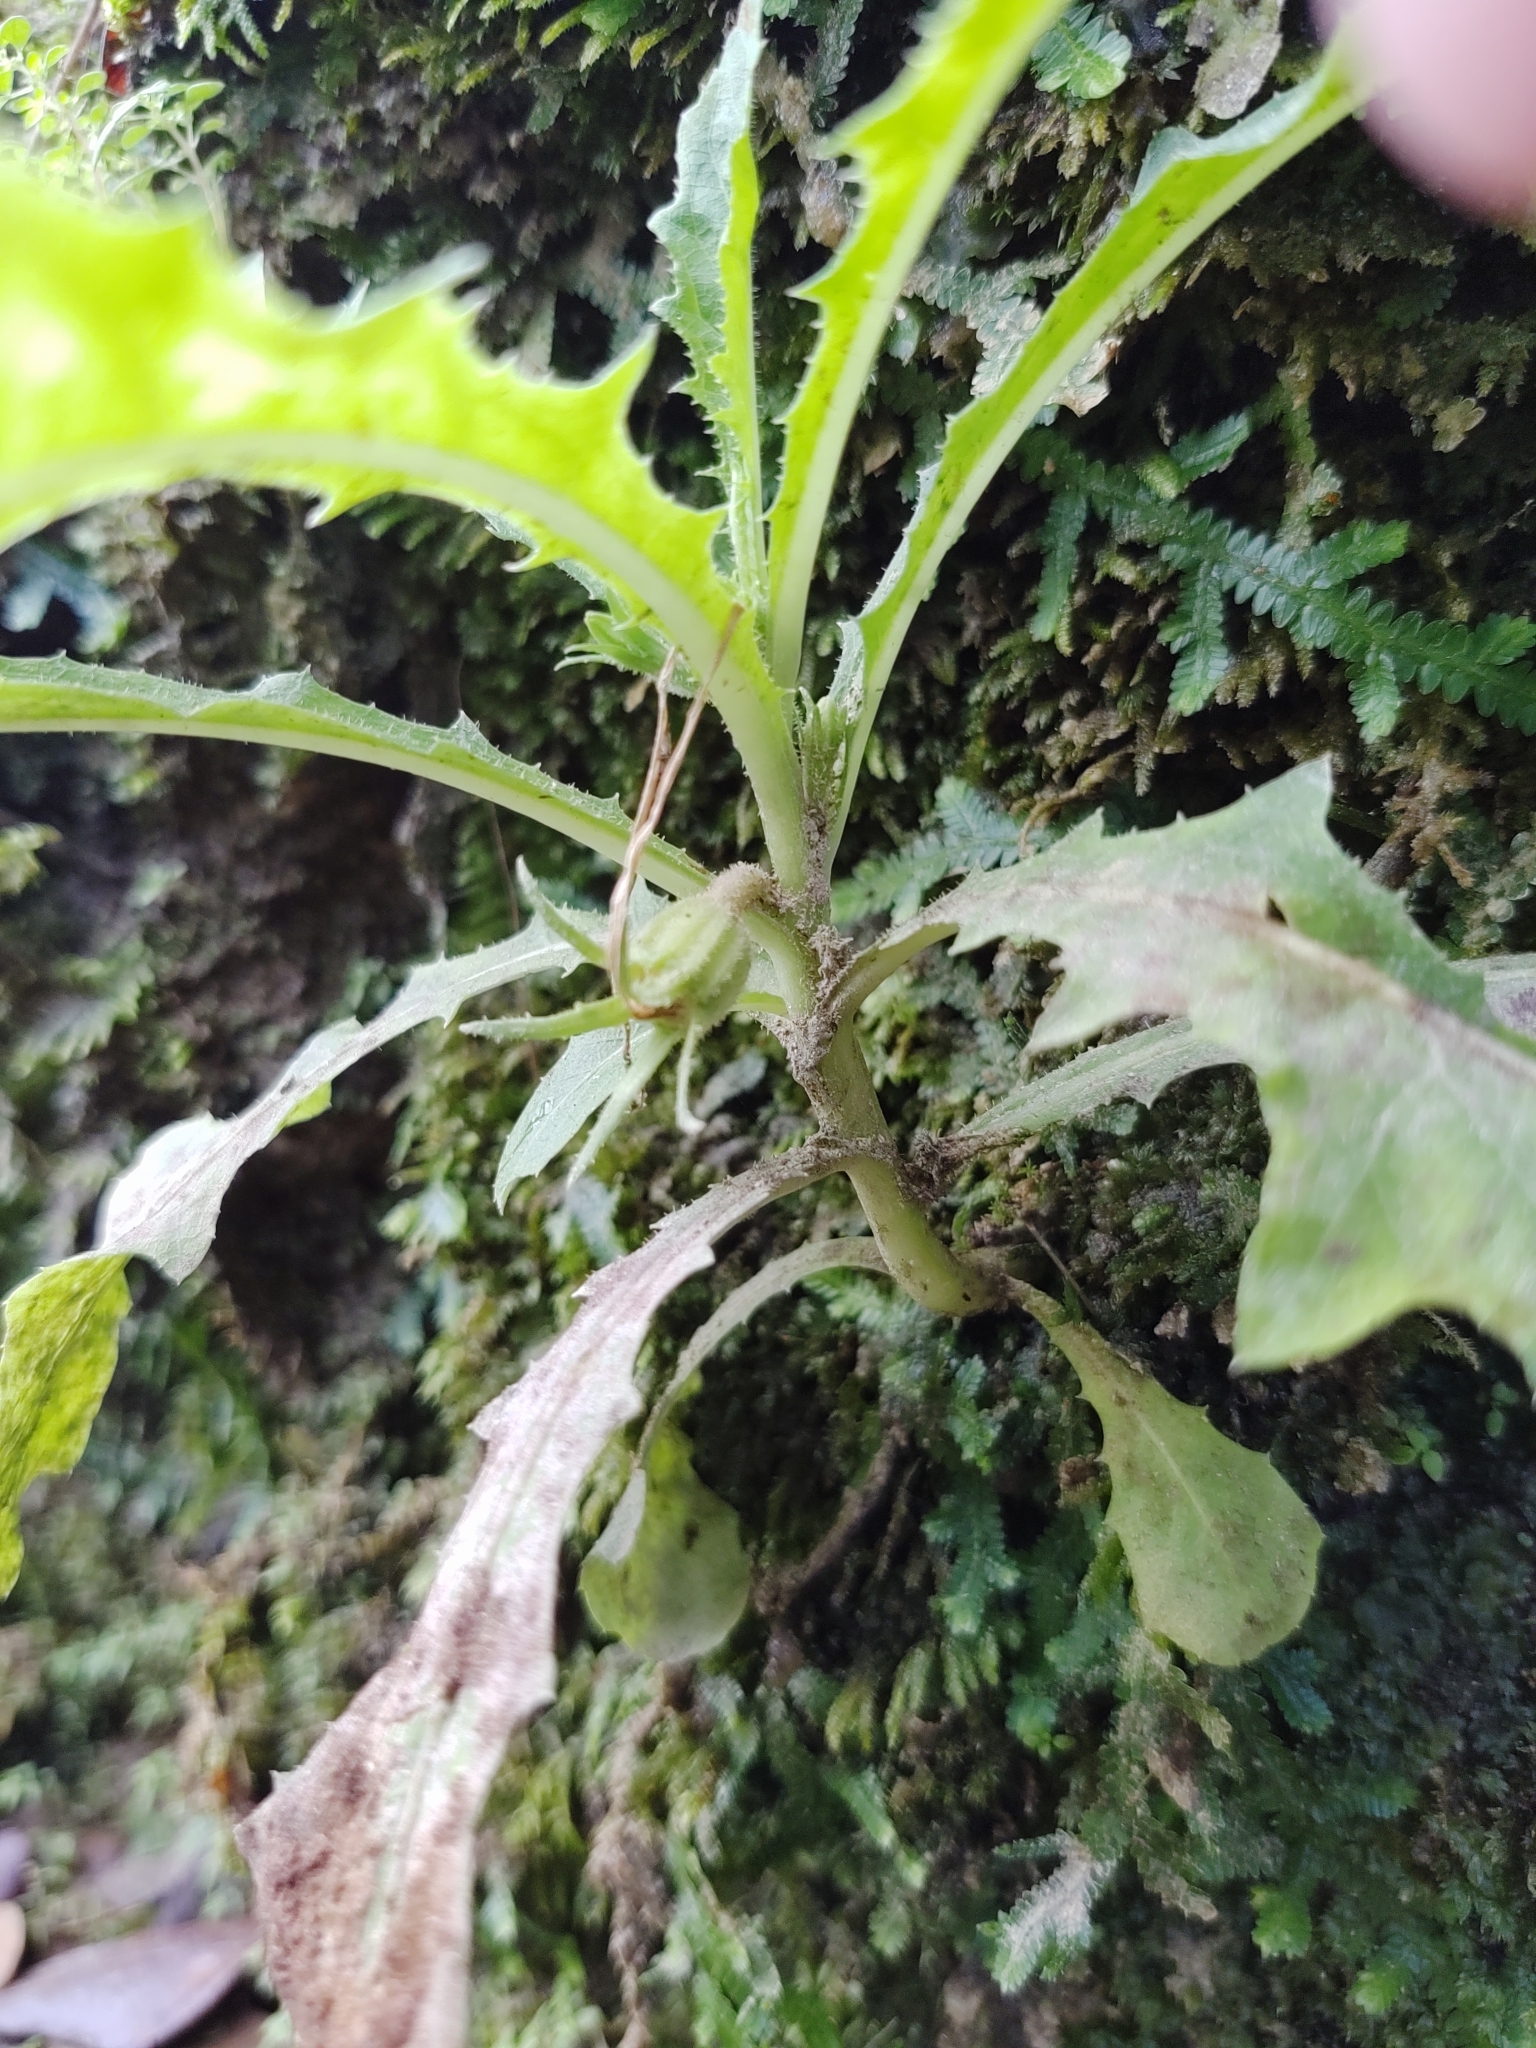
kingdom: Plantae
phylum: Tracheophyta
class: Magnoliopsida
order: Asterales
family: Campanulaceae
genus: Hippobroma
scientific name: Hippobroma longiflora
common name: Madamfate
